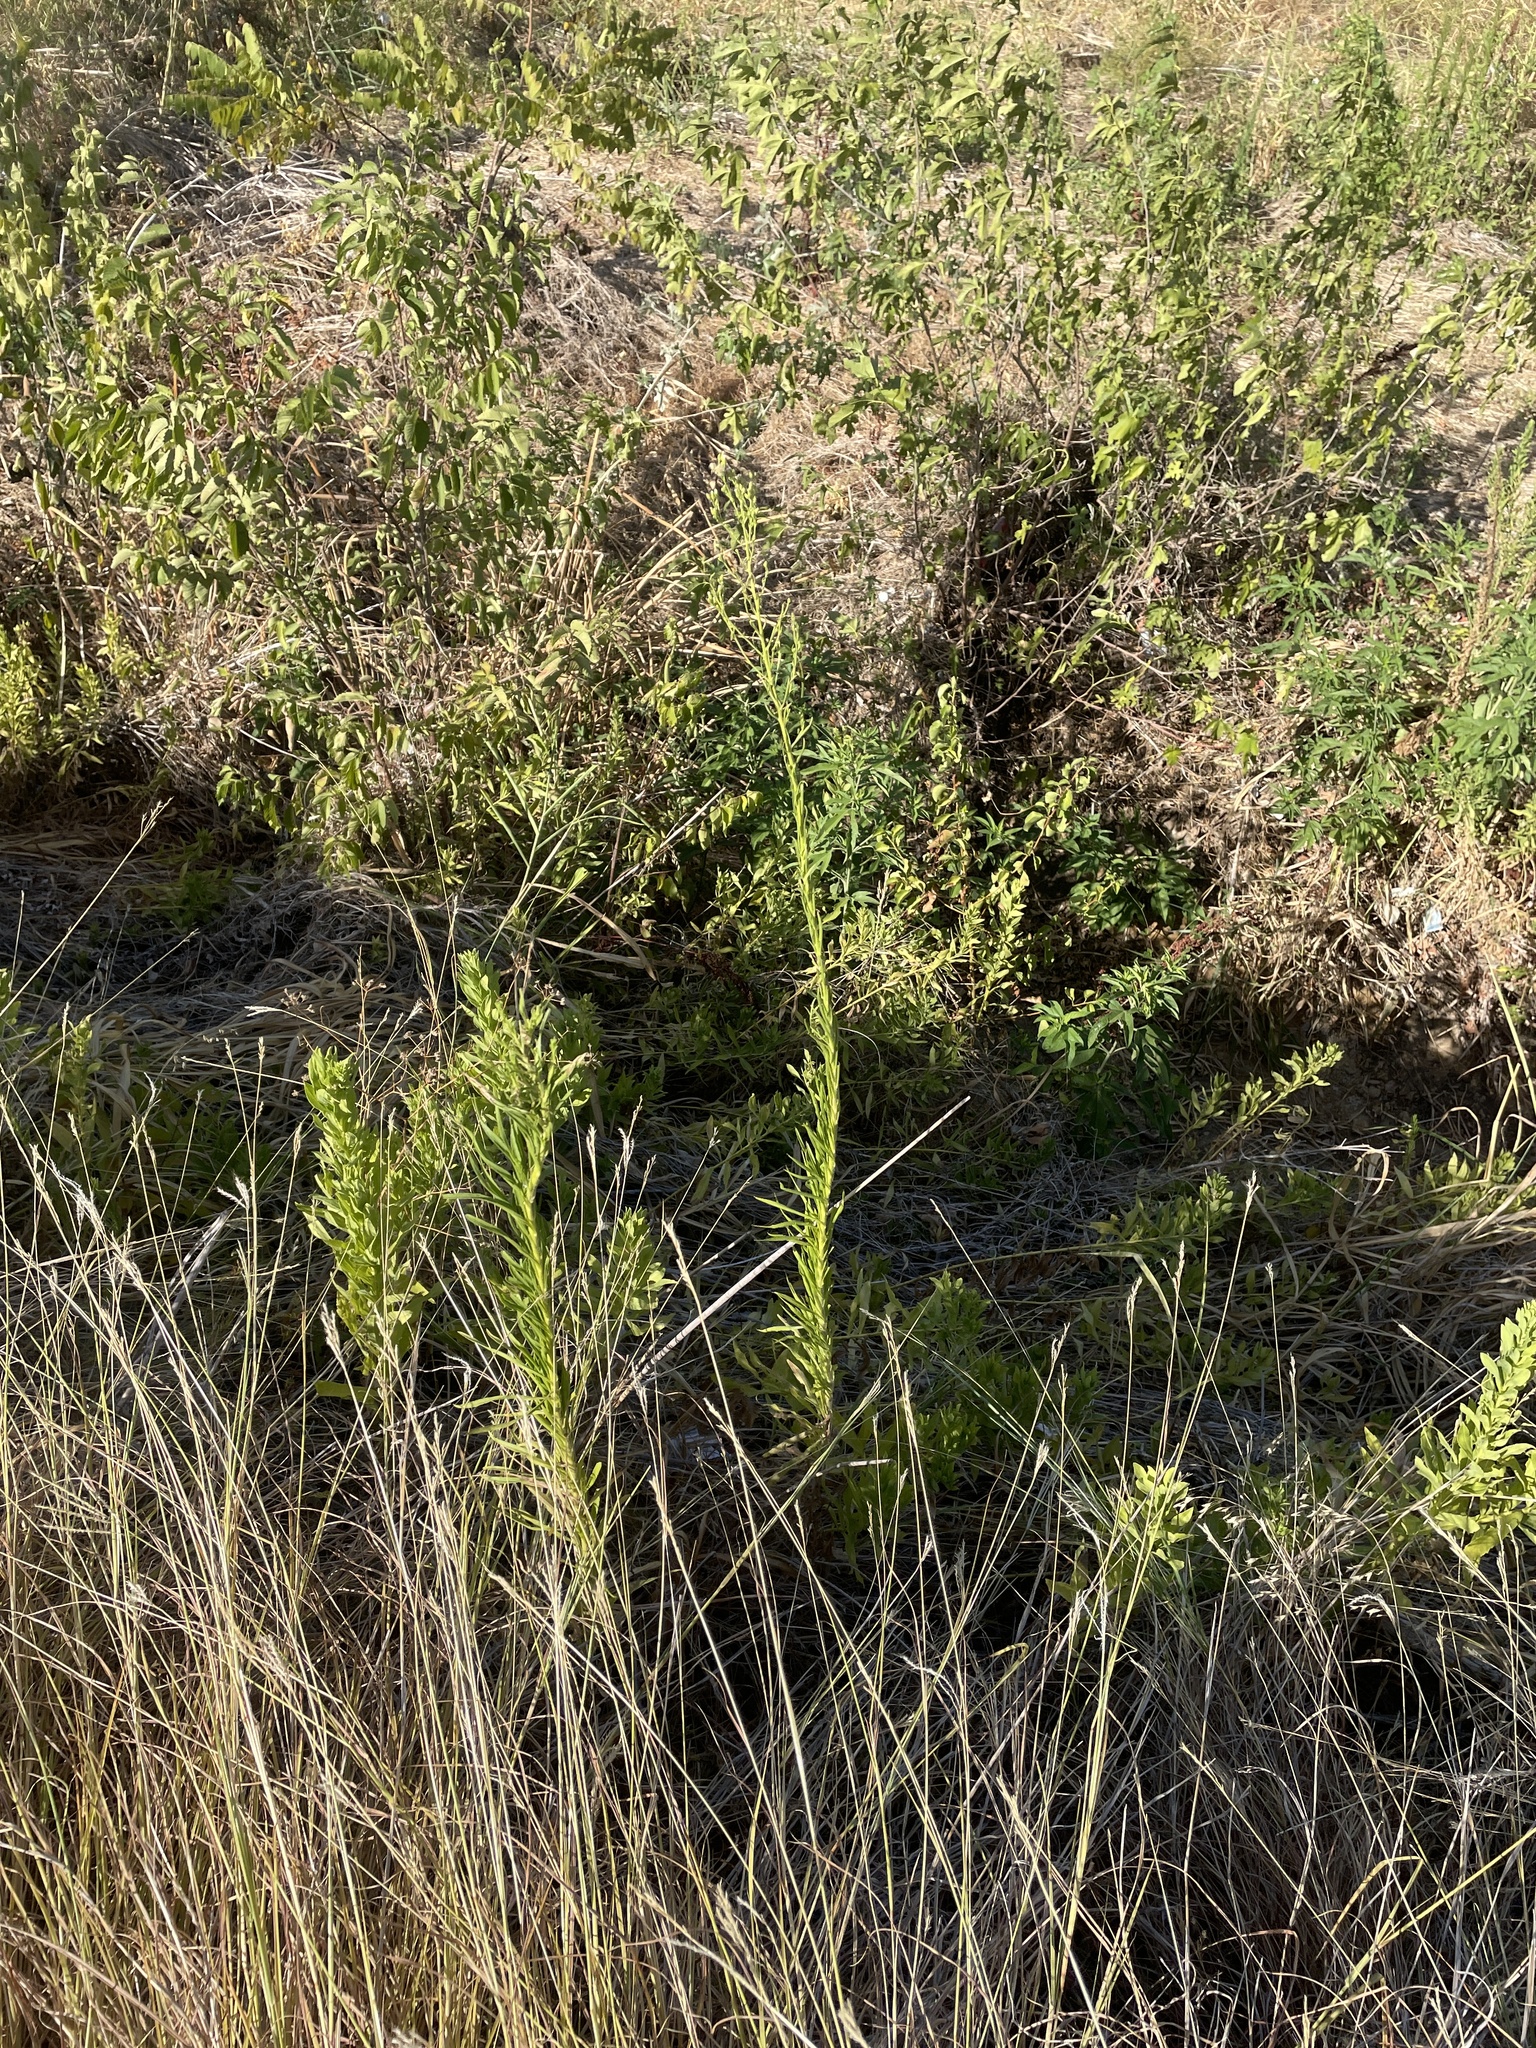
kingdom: Plantae
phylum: Tracheophyta
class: Magnoliopsida
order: Asterales
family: Asteraceae
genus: Erigeron
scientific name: Erigeron canadensis
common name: Canadian fleabane
